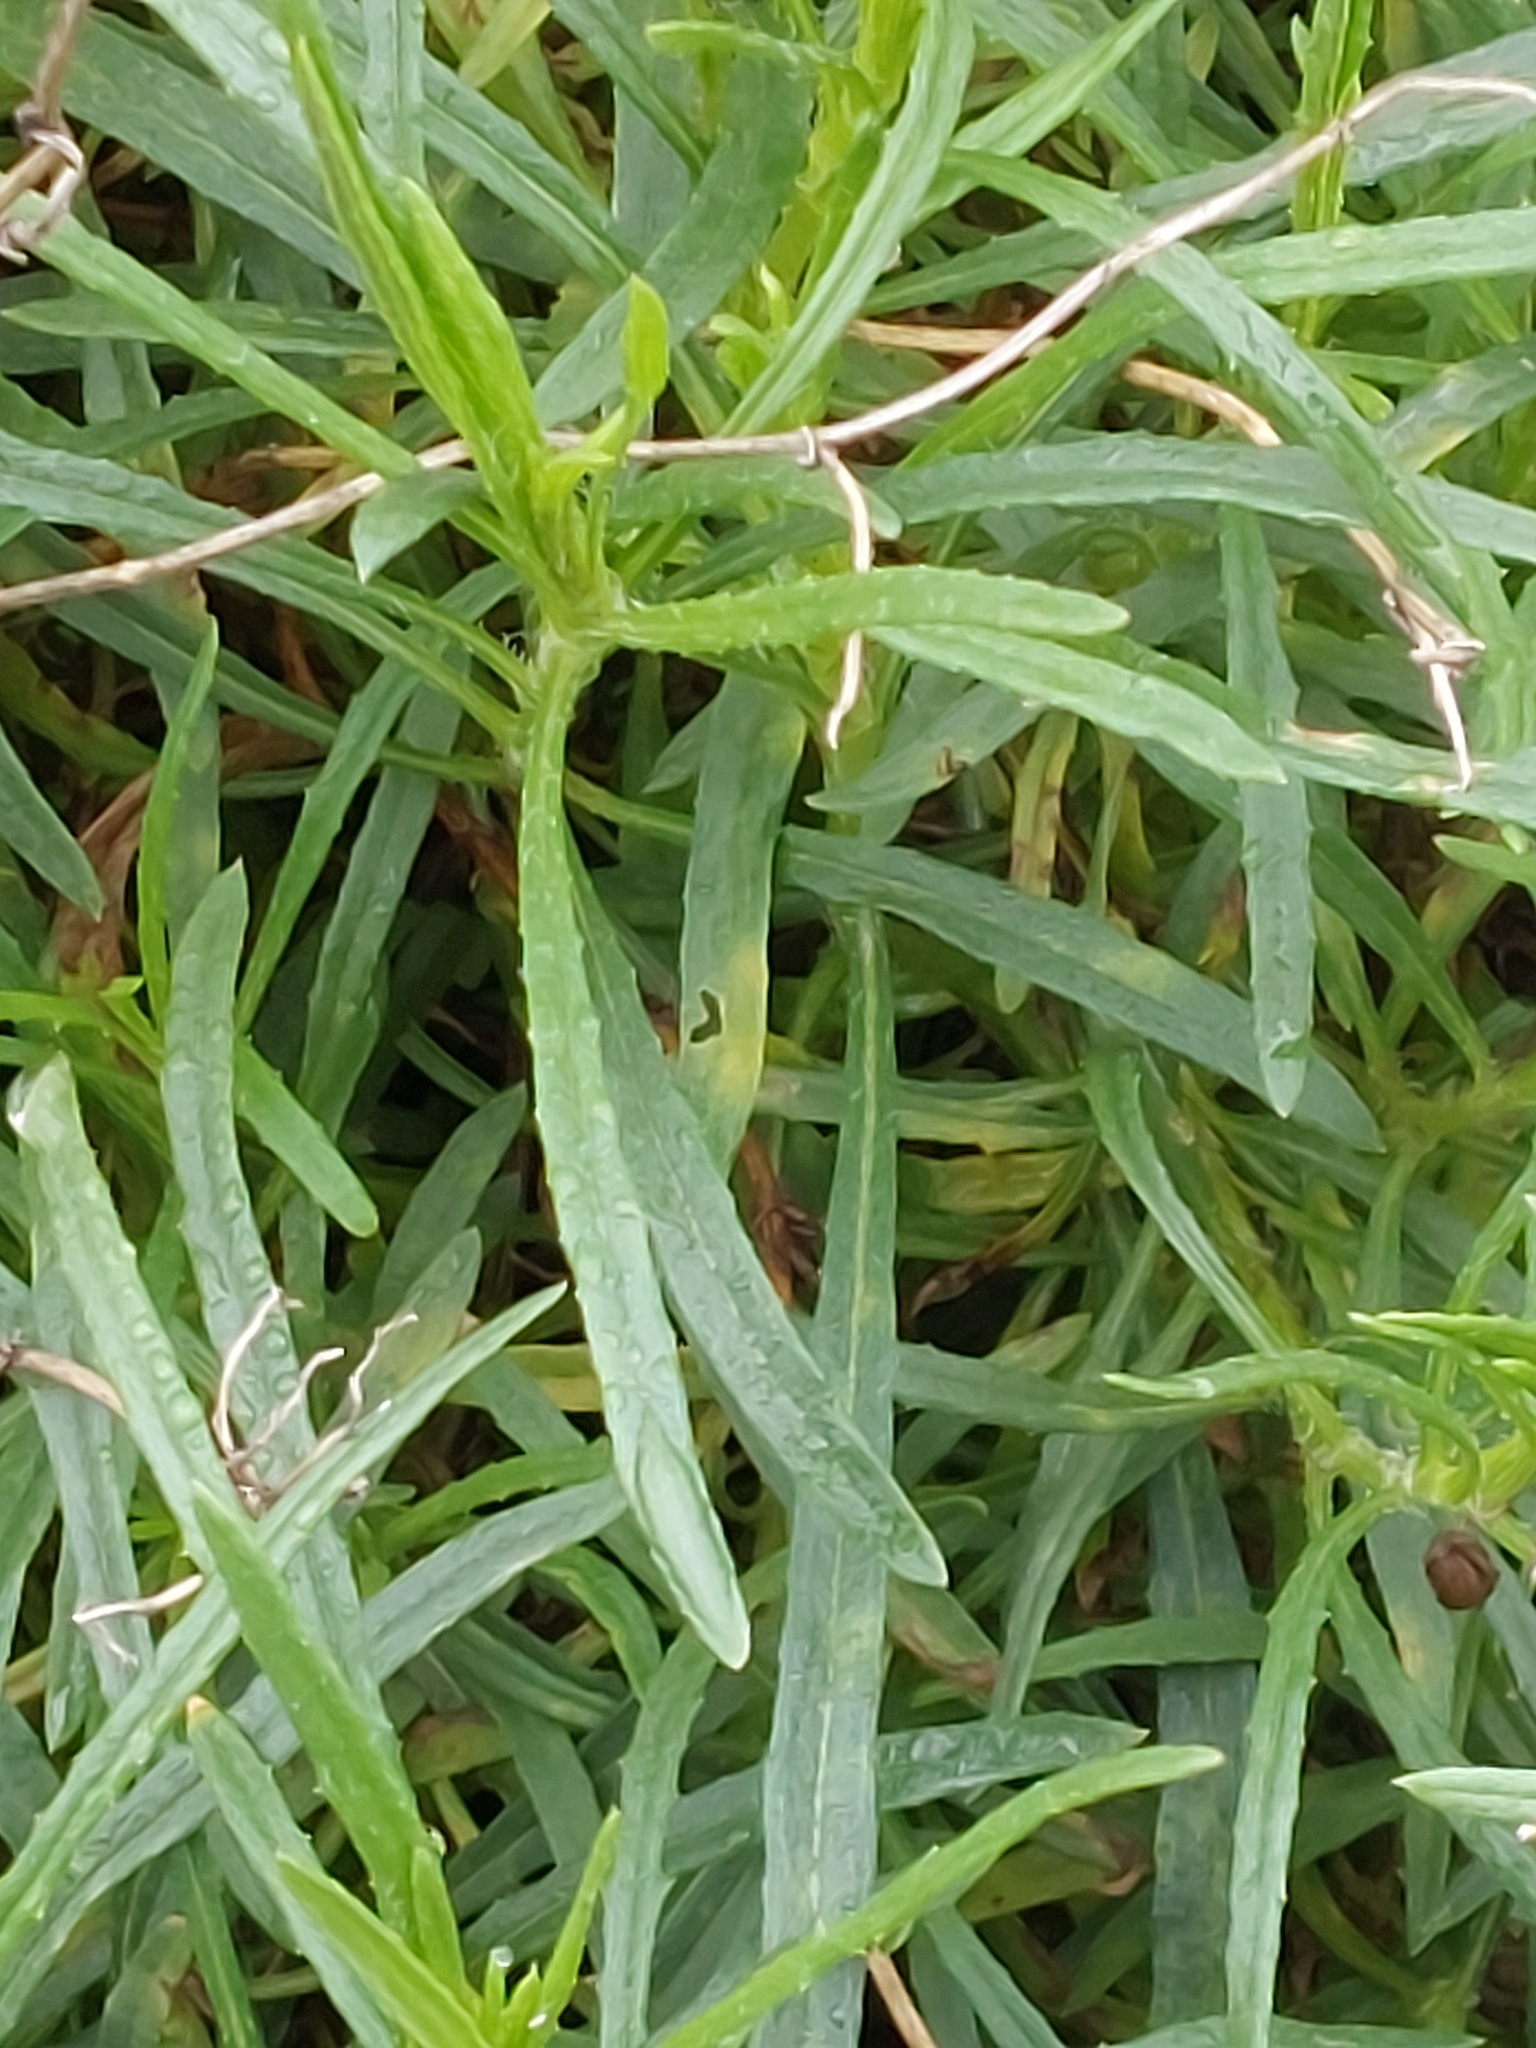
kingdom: Plantae
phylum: Tracheophyta
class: Magnoliopsida
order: Asterales
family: Asteraceae
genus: Senecio
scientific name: Senecio inaequidens
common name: Narrow-leaved ragwort
